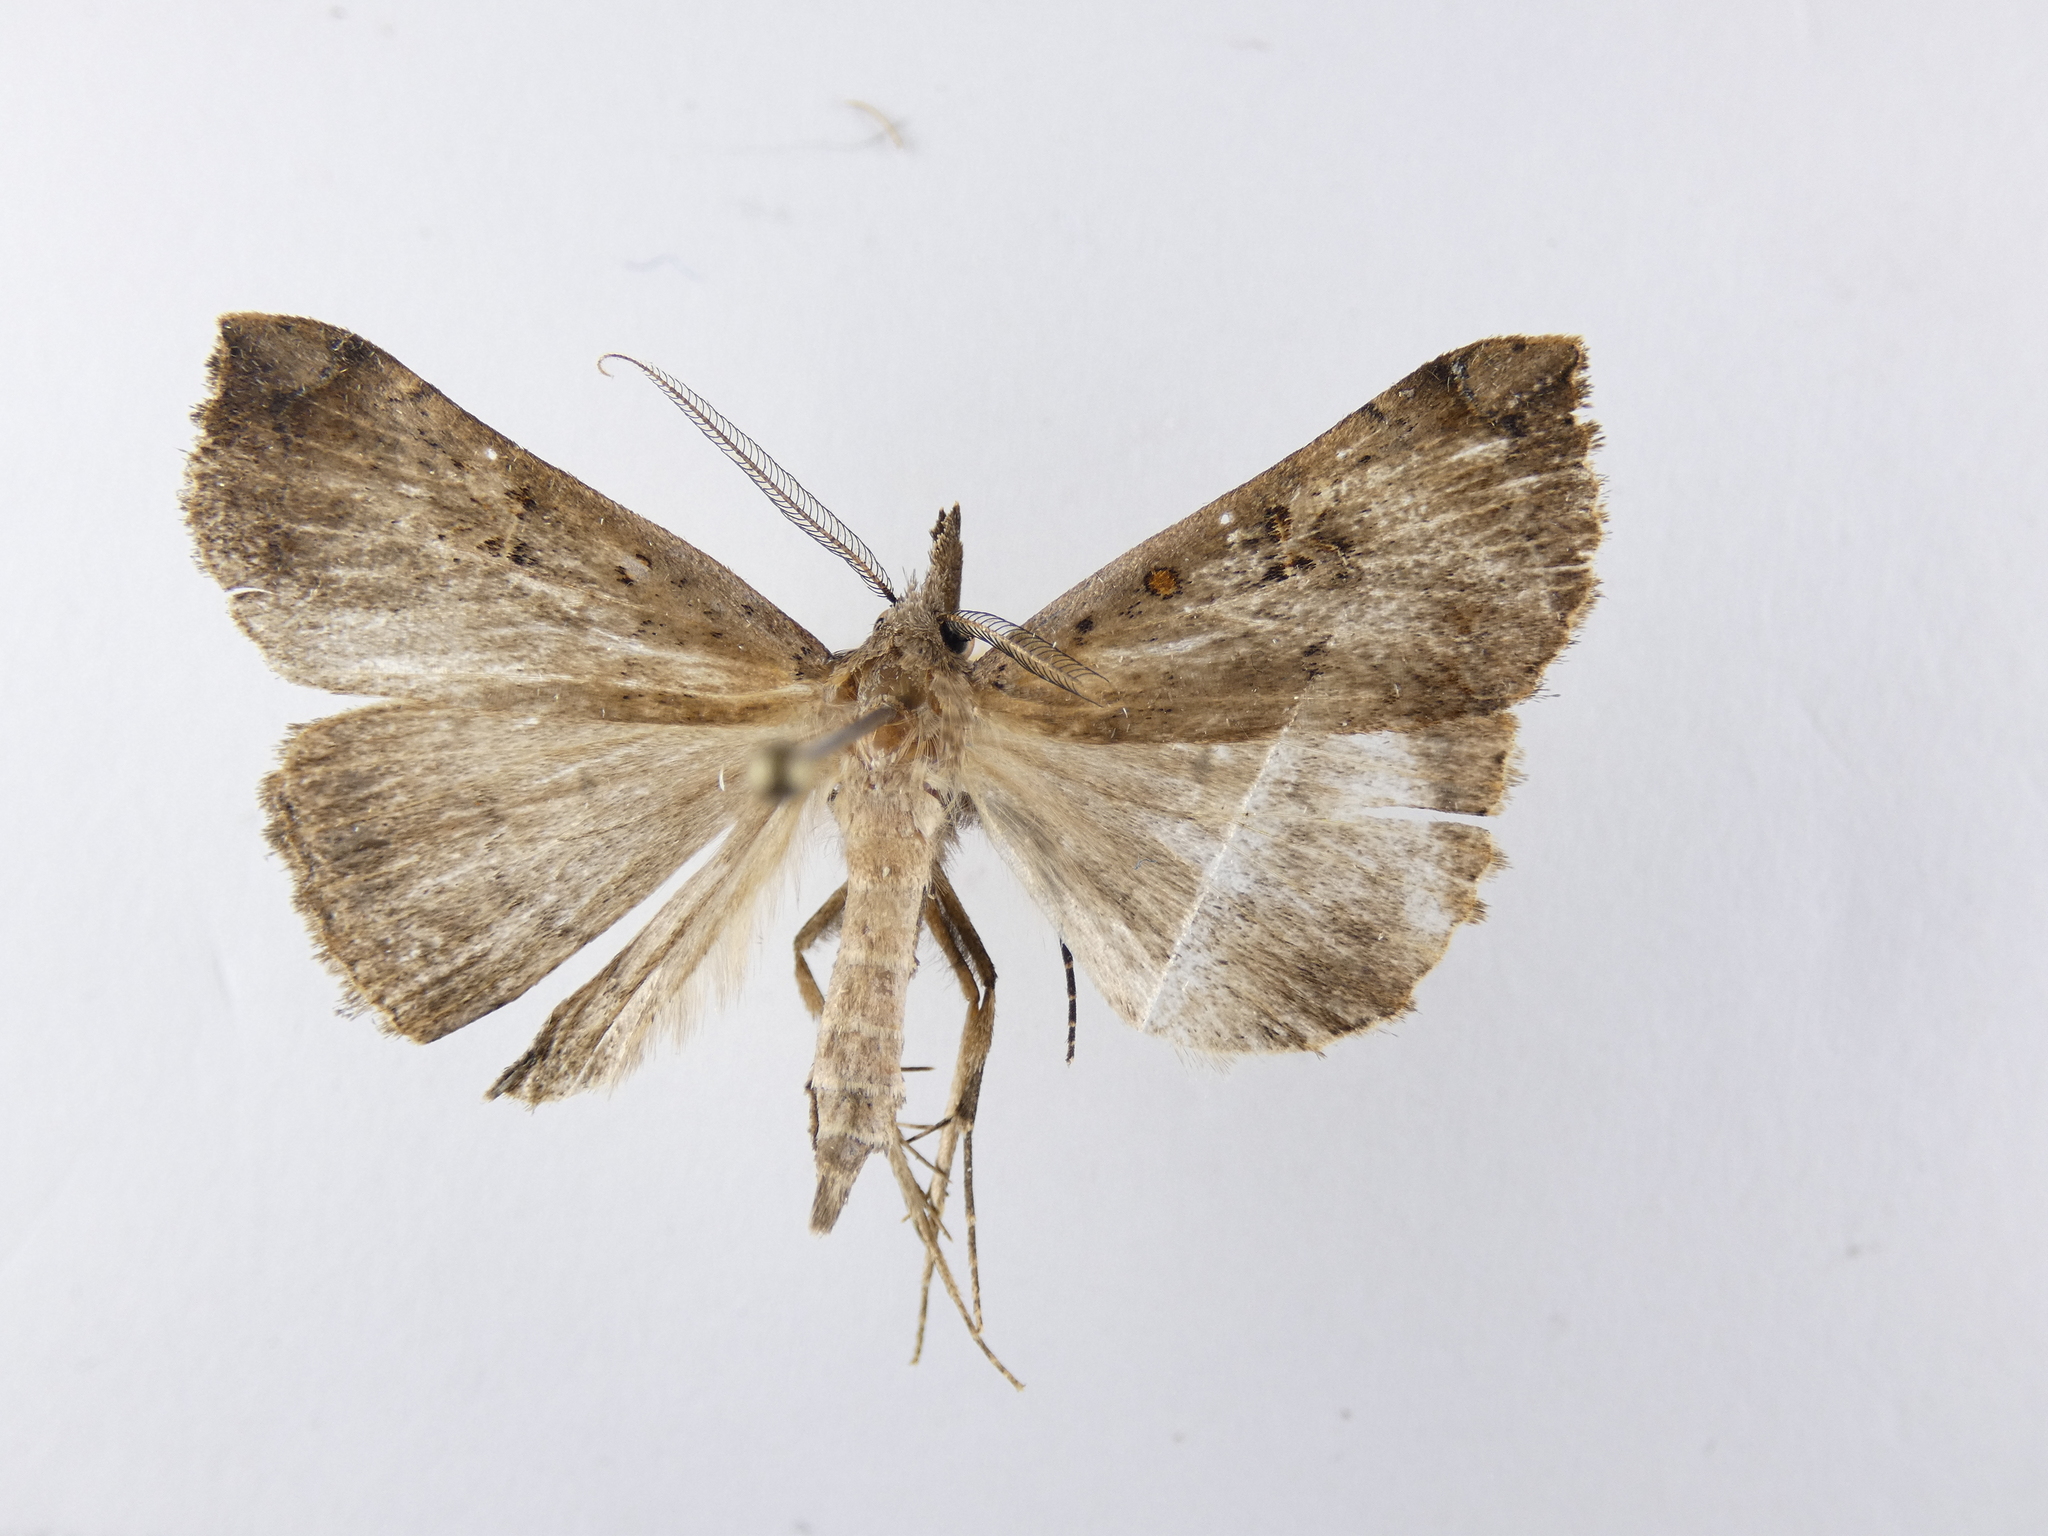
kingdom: Animalia
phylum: Arthropoda
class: Insecta
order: Lepidoptera
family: Erebidae
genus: Rhapsa
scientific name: Rhapsa scotosialis
